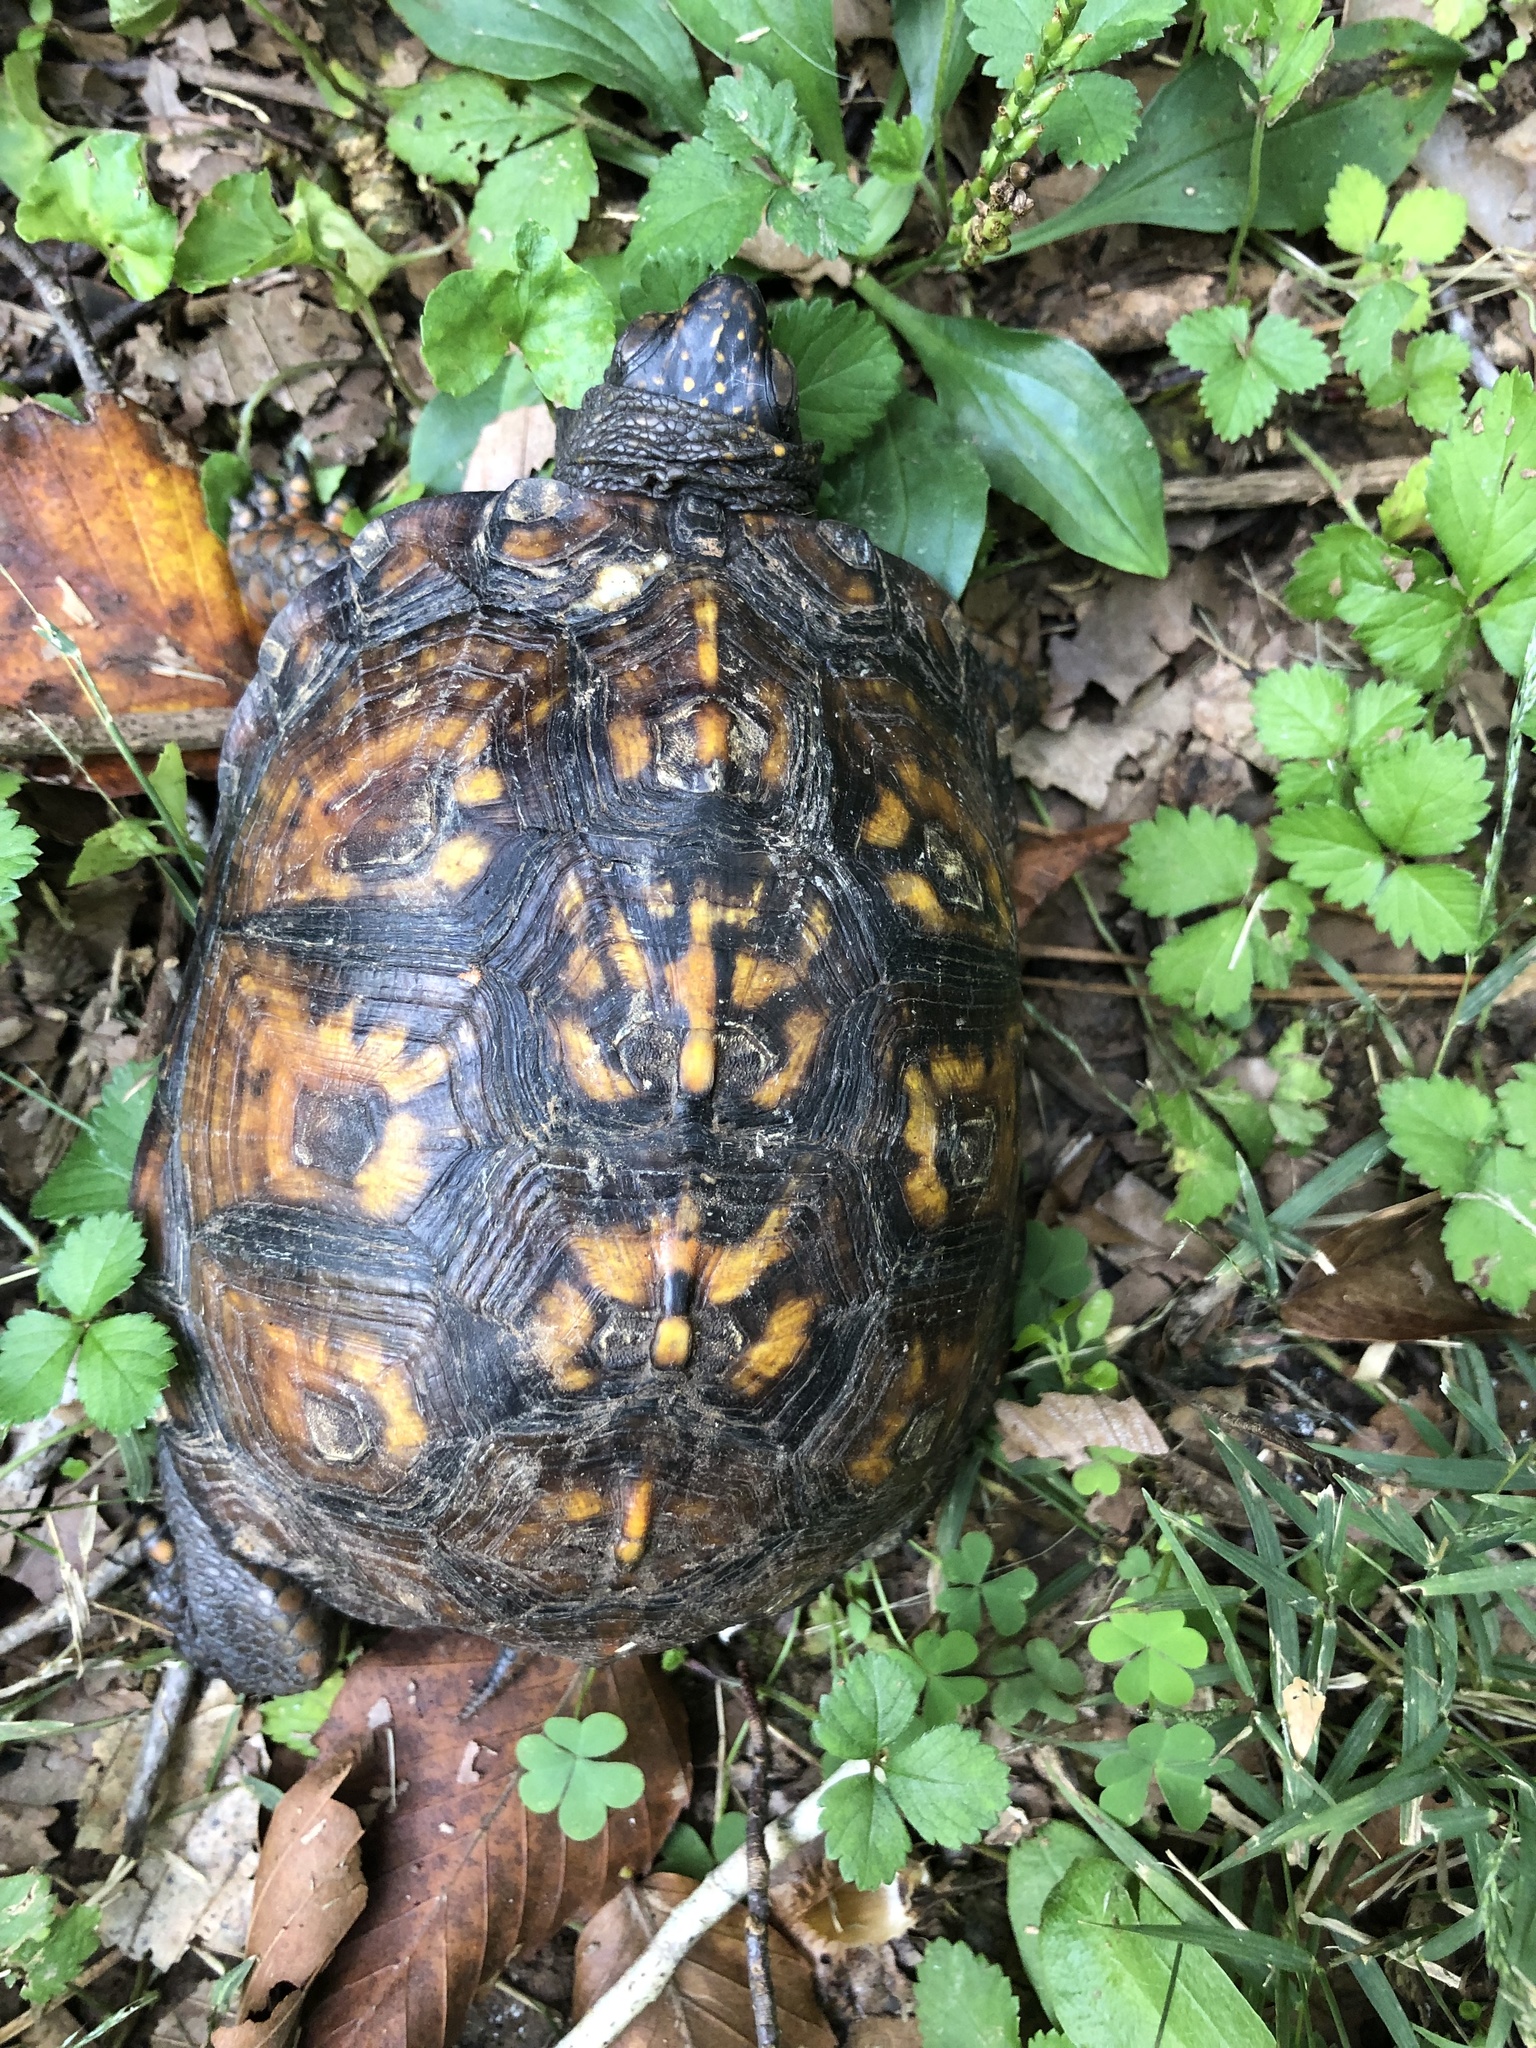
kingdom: Animalia
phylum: Chordata
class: Testudines
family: Emydidae
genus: Terrapene
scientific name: Terrapene carolina
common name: Common box turtle
